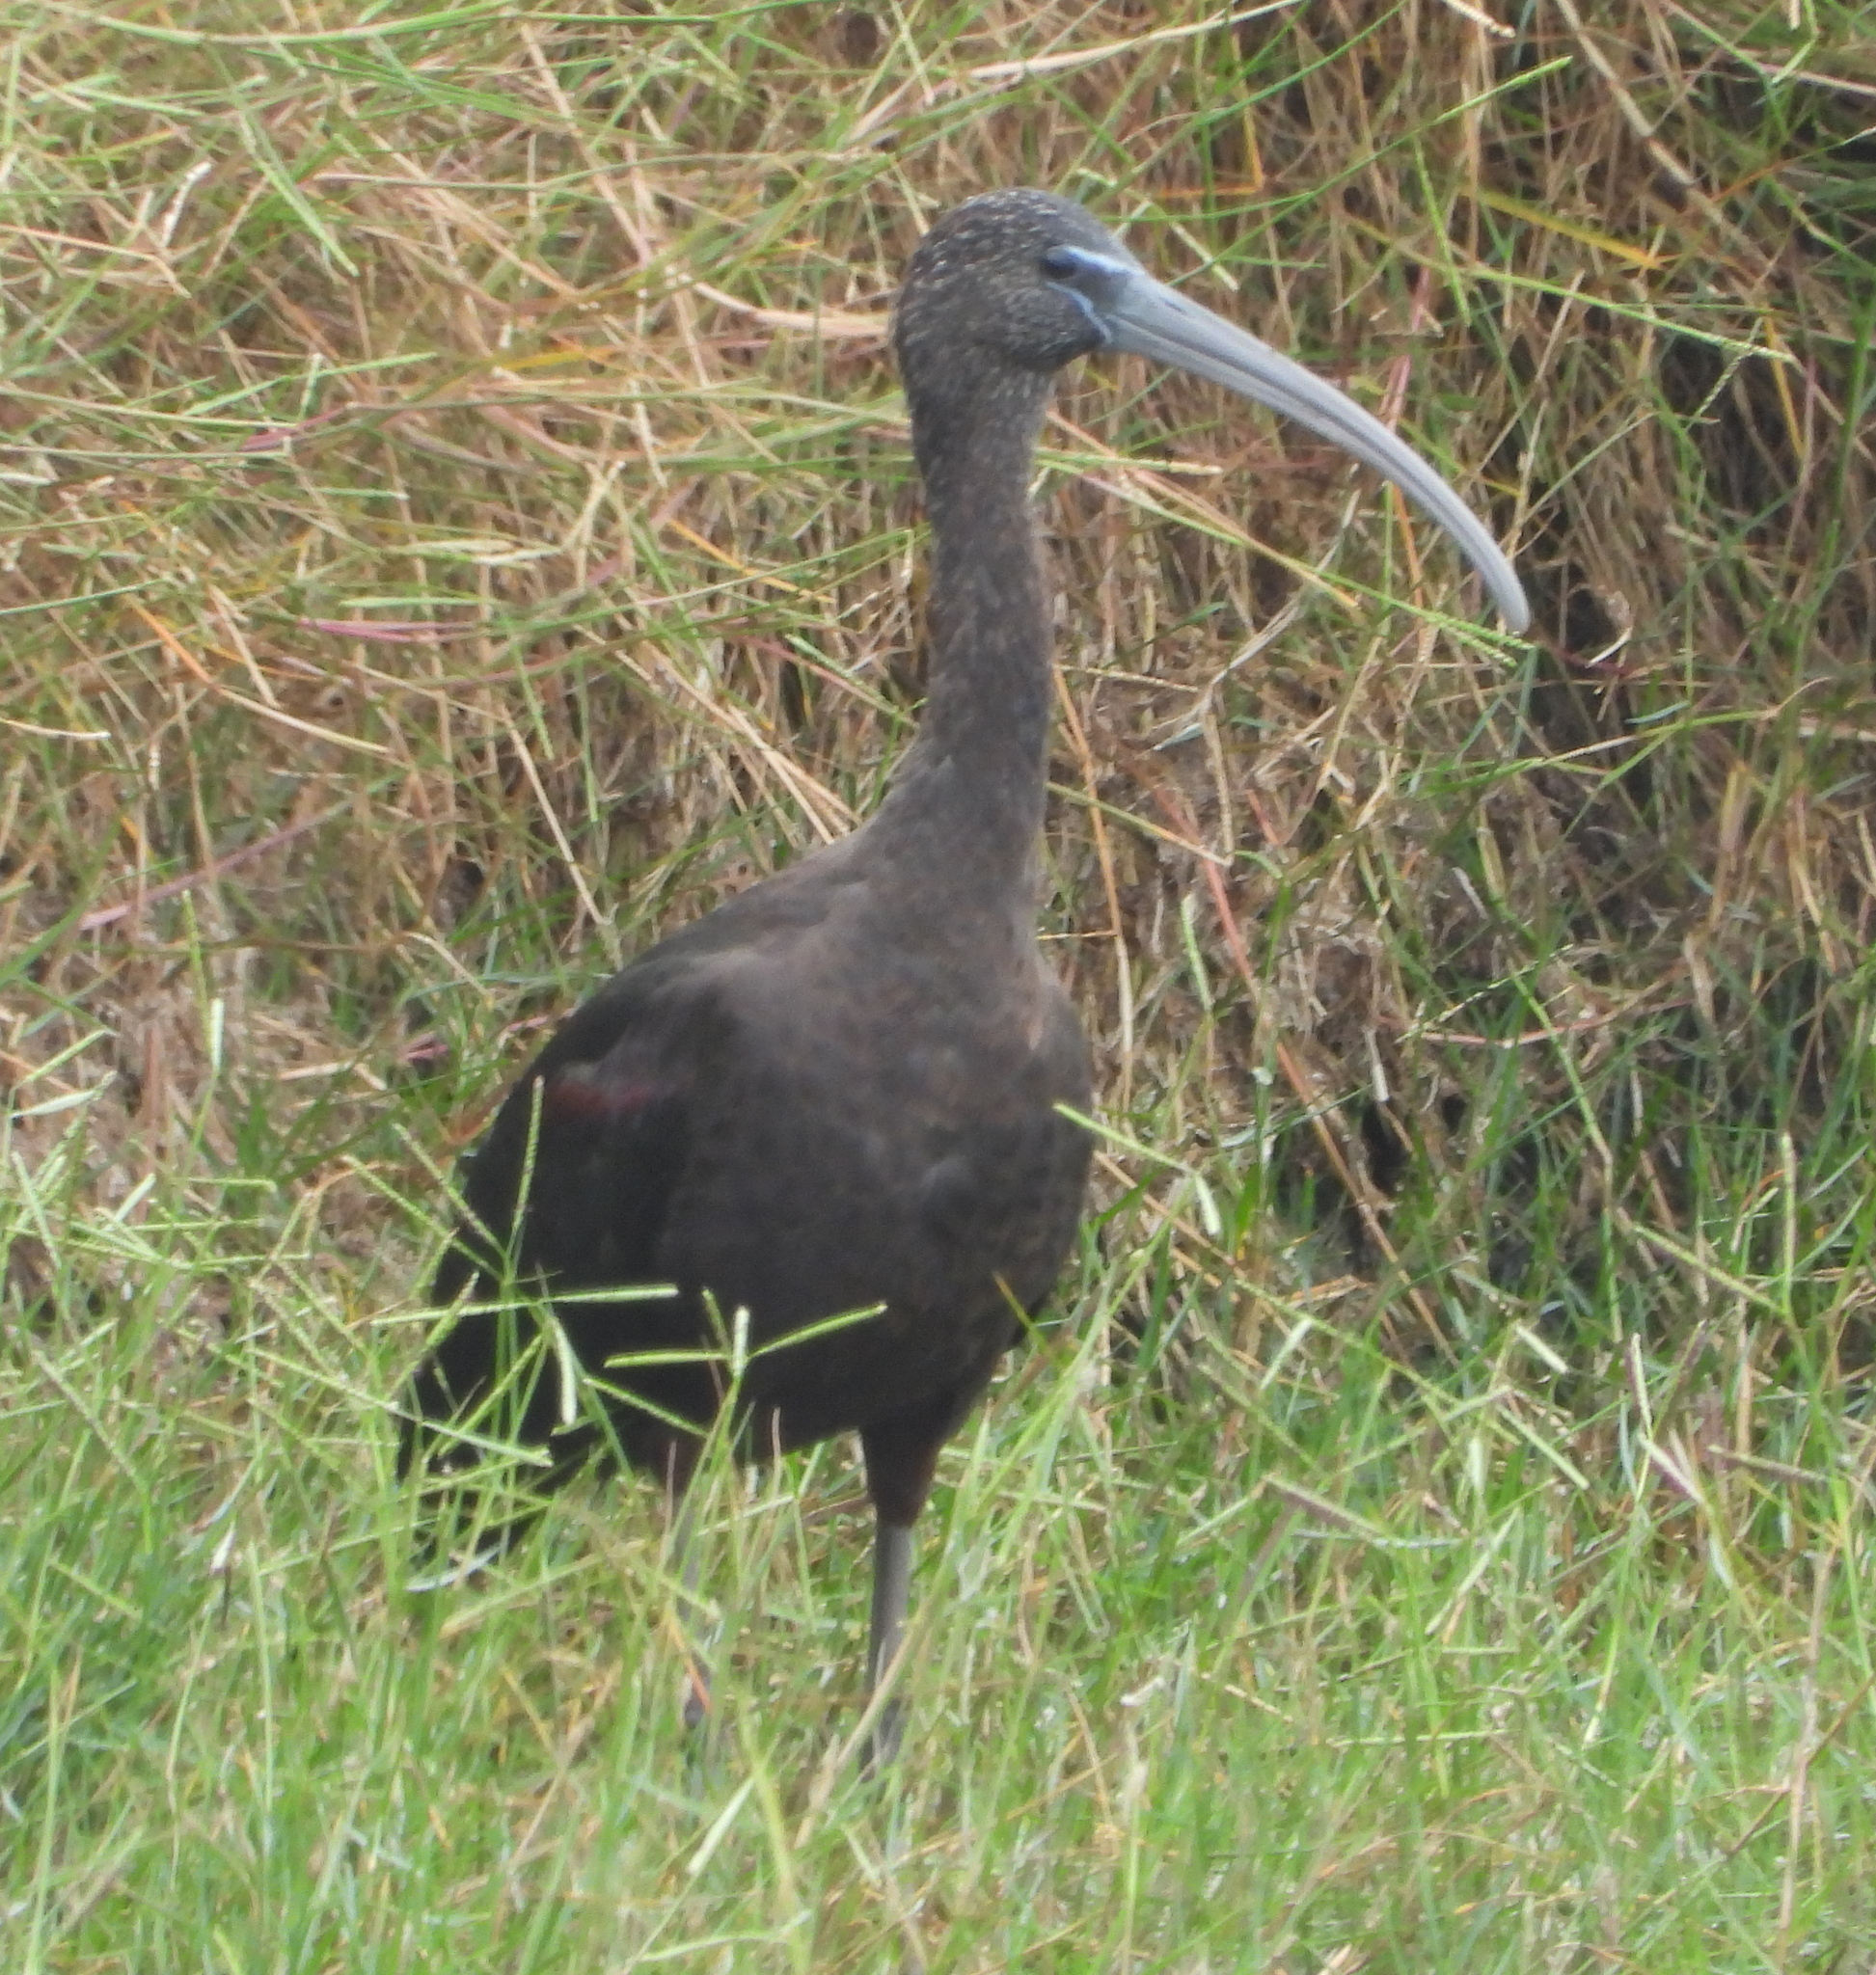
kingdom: Animalia
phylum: Chordata
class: Aves
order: Pelecaniformes
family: Threskiornithidae
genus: Plegadis
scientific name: Plegadis falcinellus
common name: Glossy ibis
